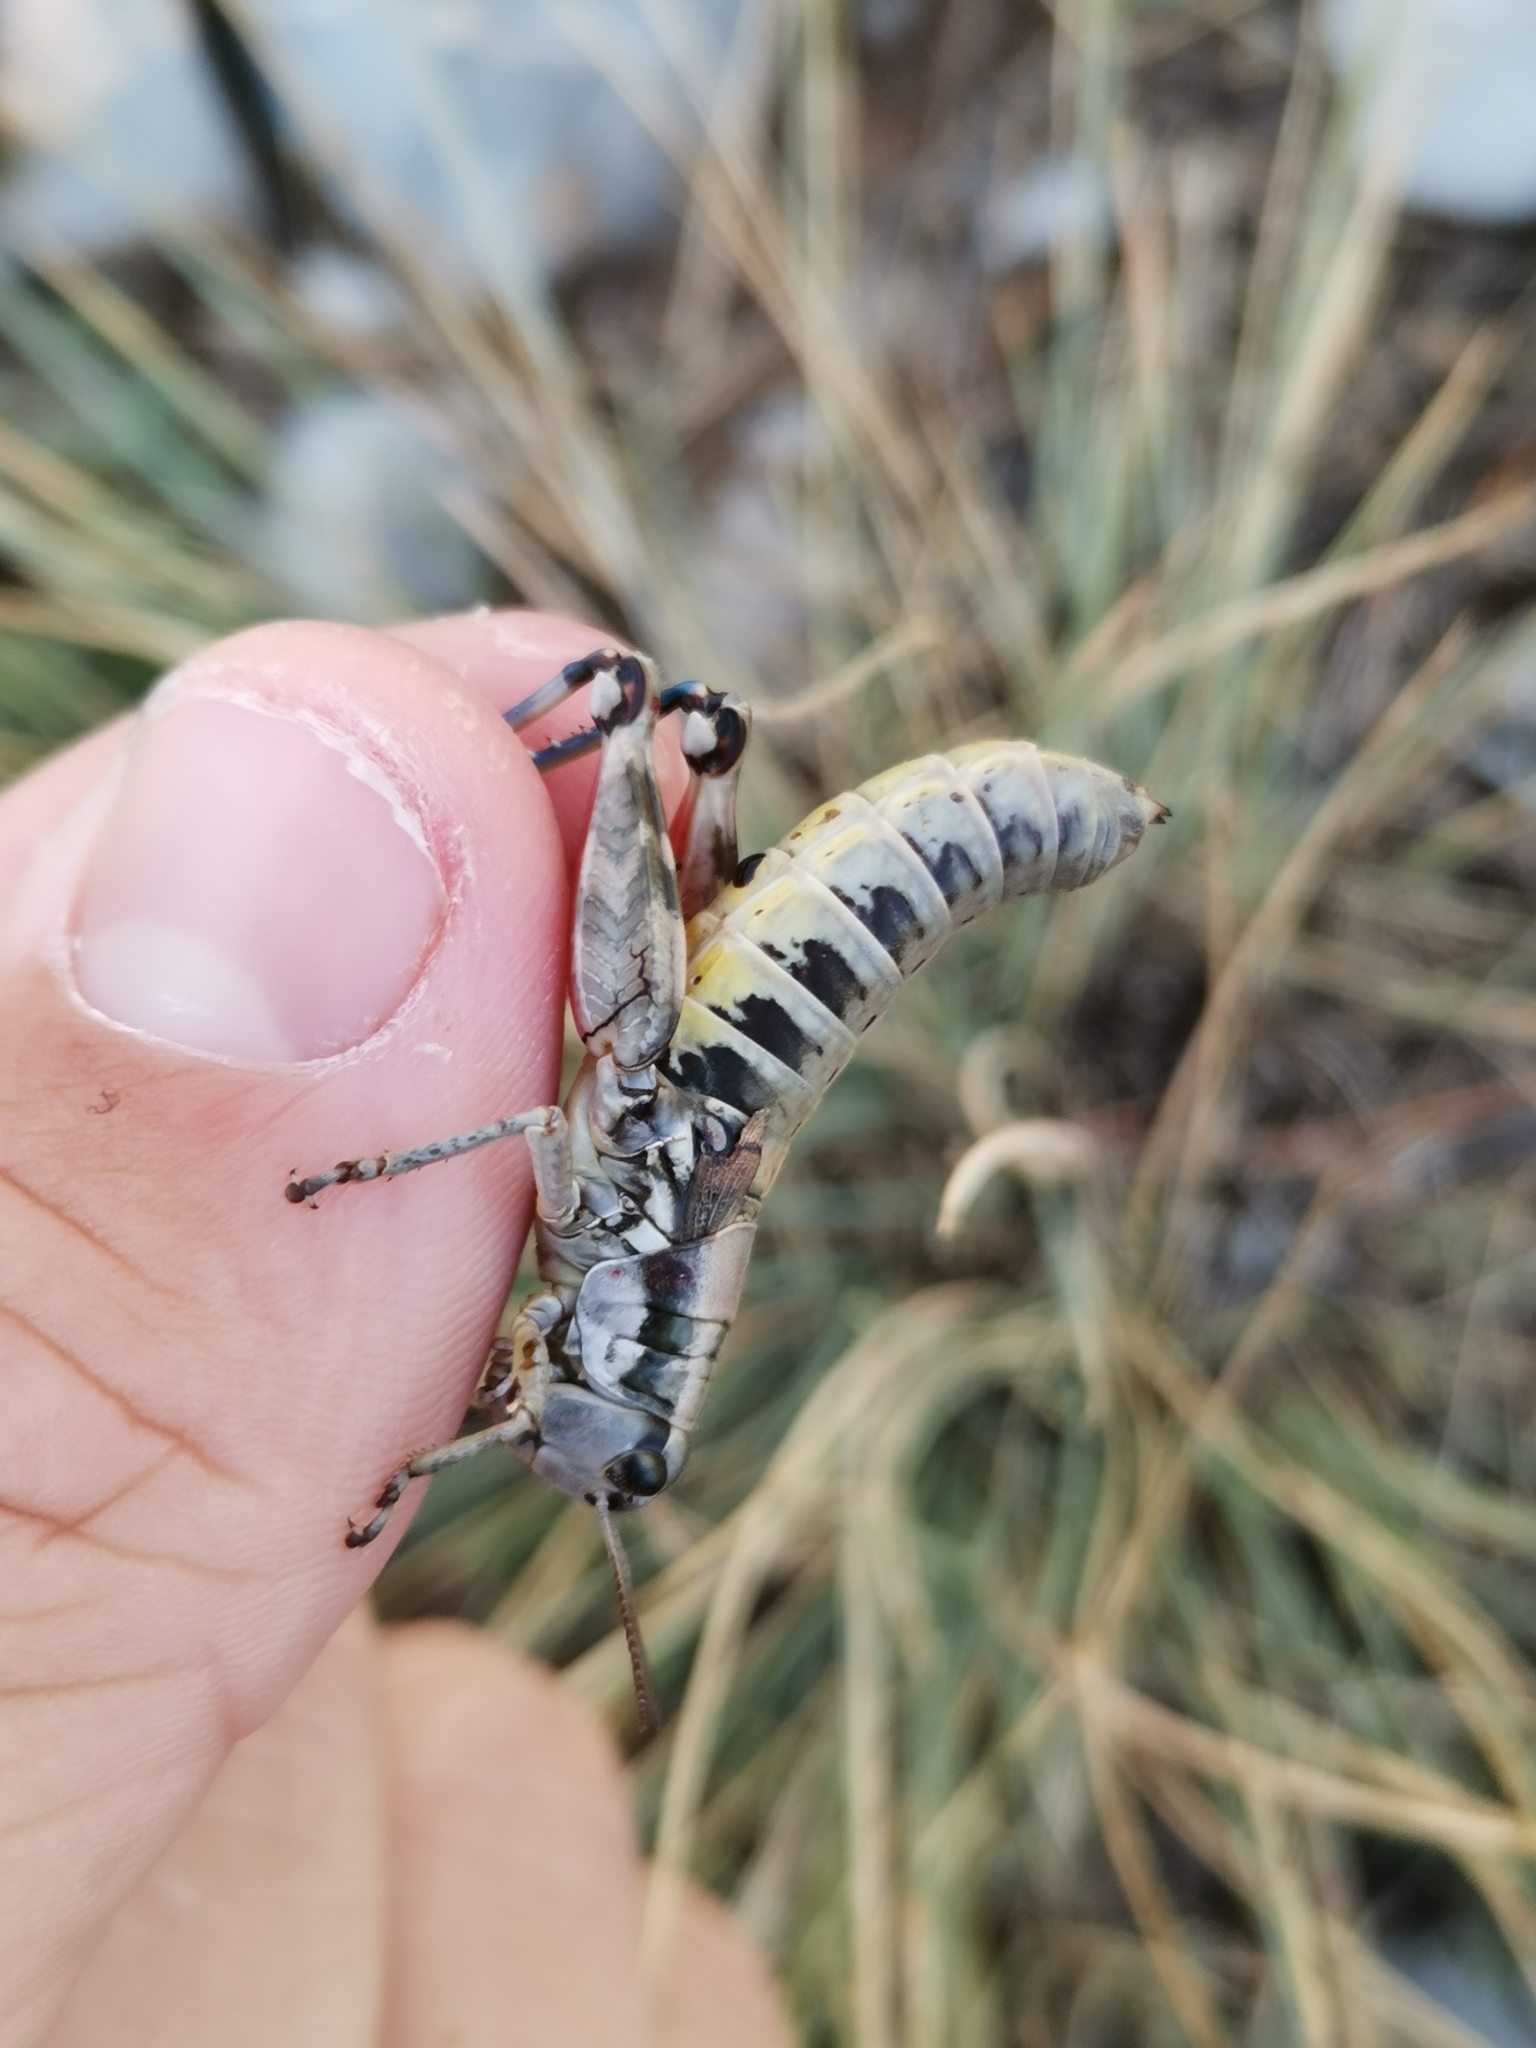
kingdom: Animalia
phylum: Arthropoda
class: Insecta
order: Orthoptera
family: Acrididae
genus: Podisma
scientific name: Podisma amedegnatoae
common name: Ventoux mountain grasshopper
